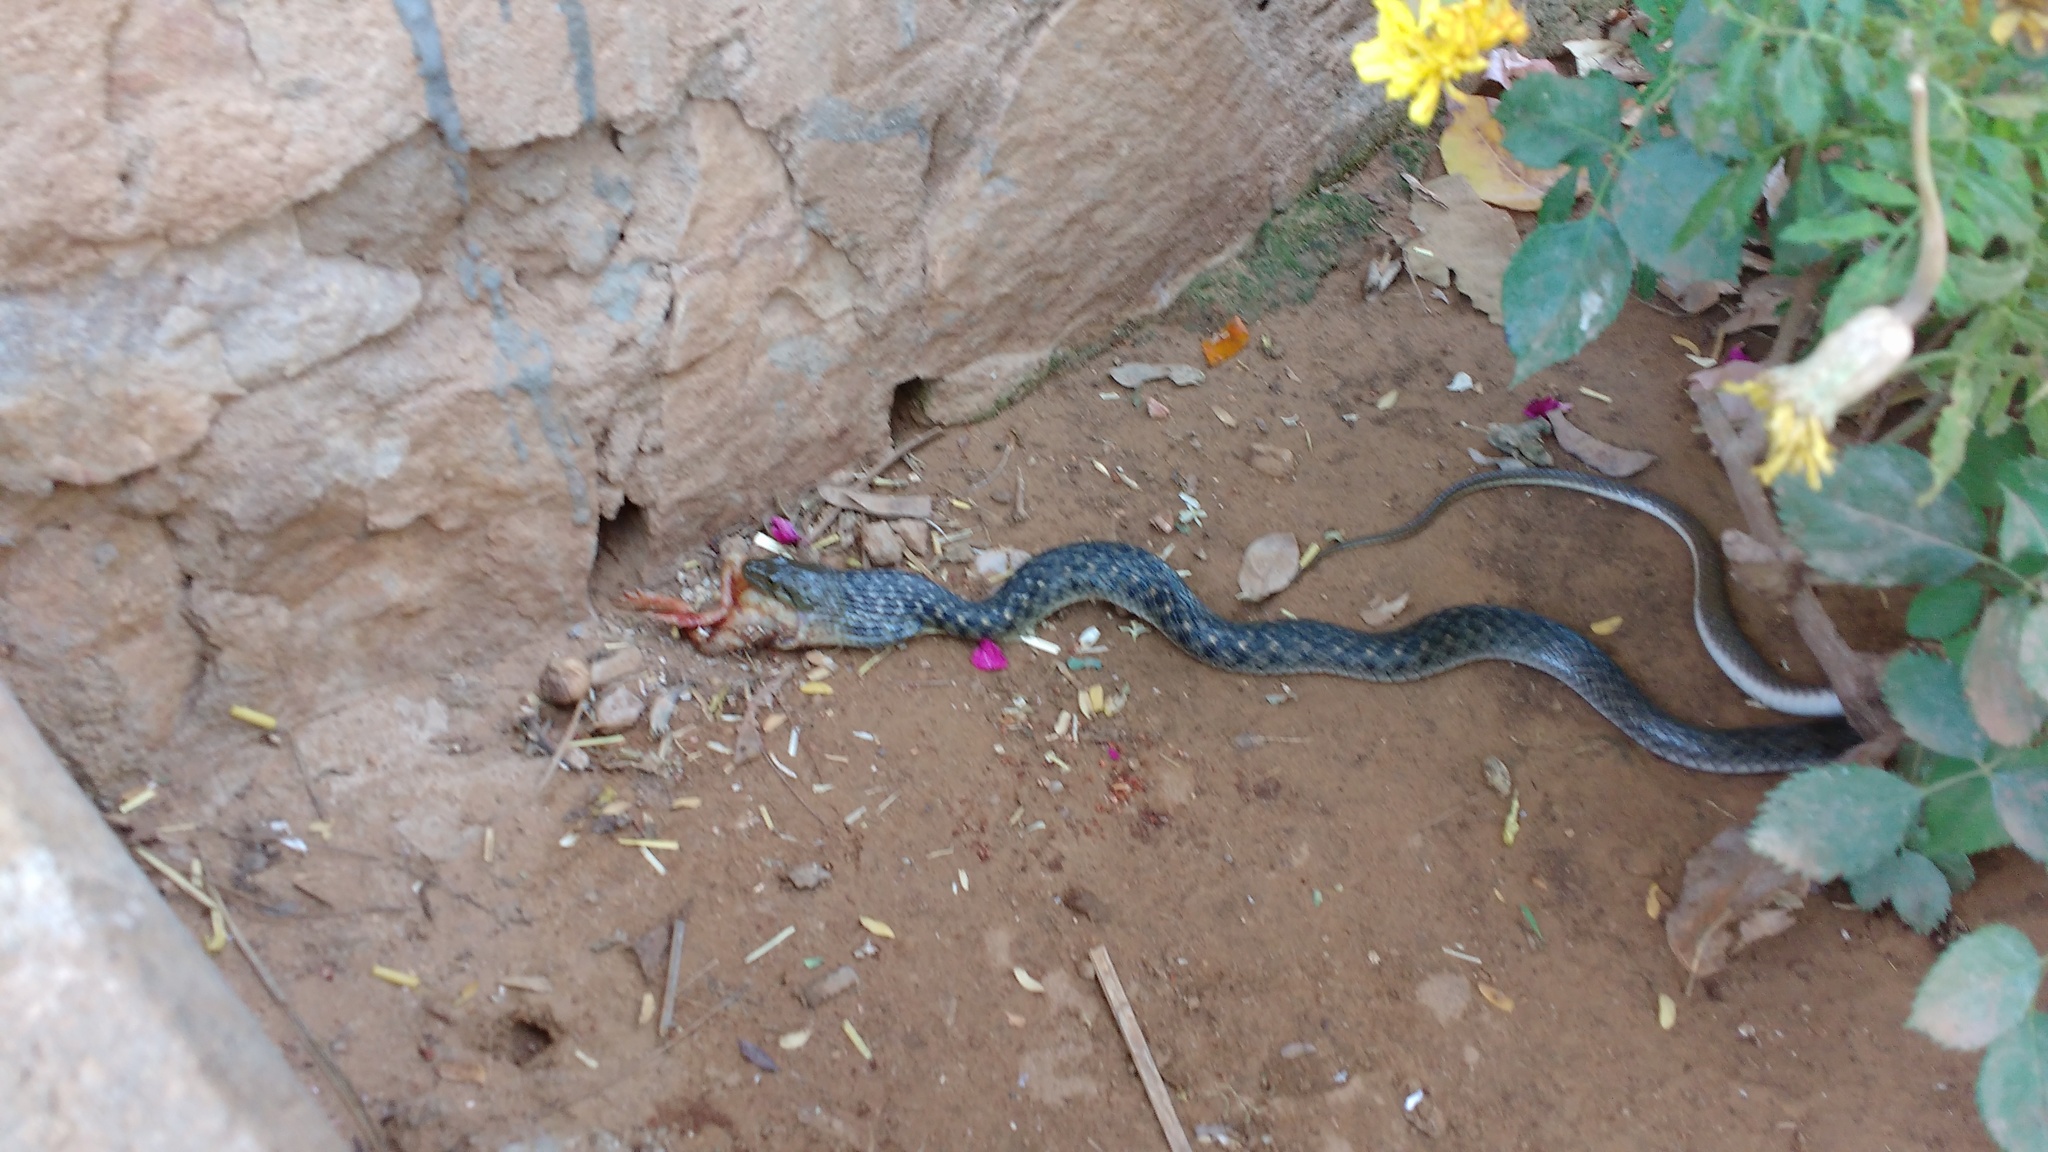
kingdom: Animalia
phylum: Chordata
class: Squamata
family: Colubridae
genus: Fowlea
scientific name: Fowlea piscator
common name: Asiatic water snake
